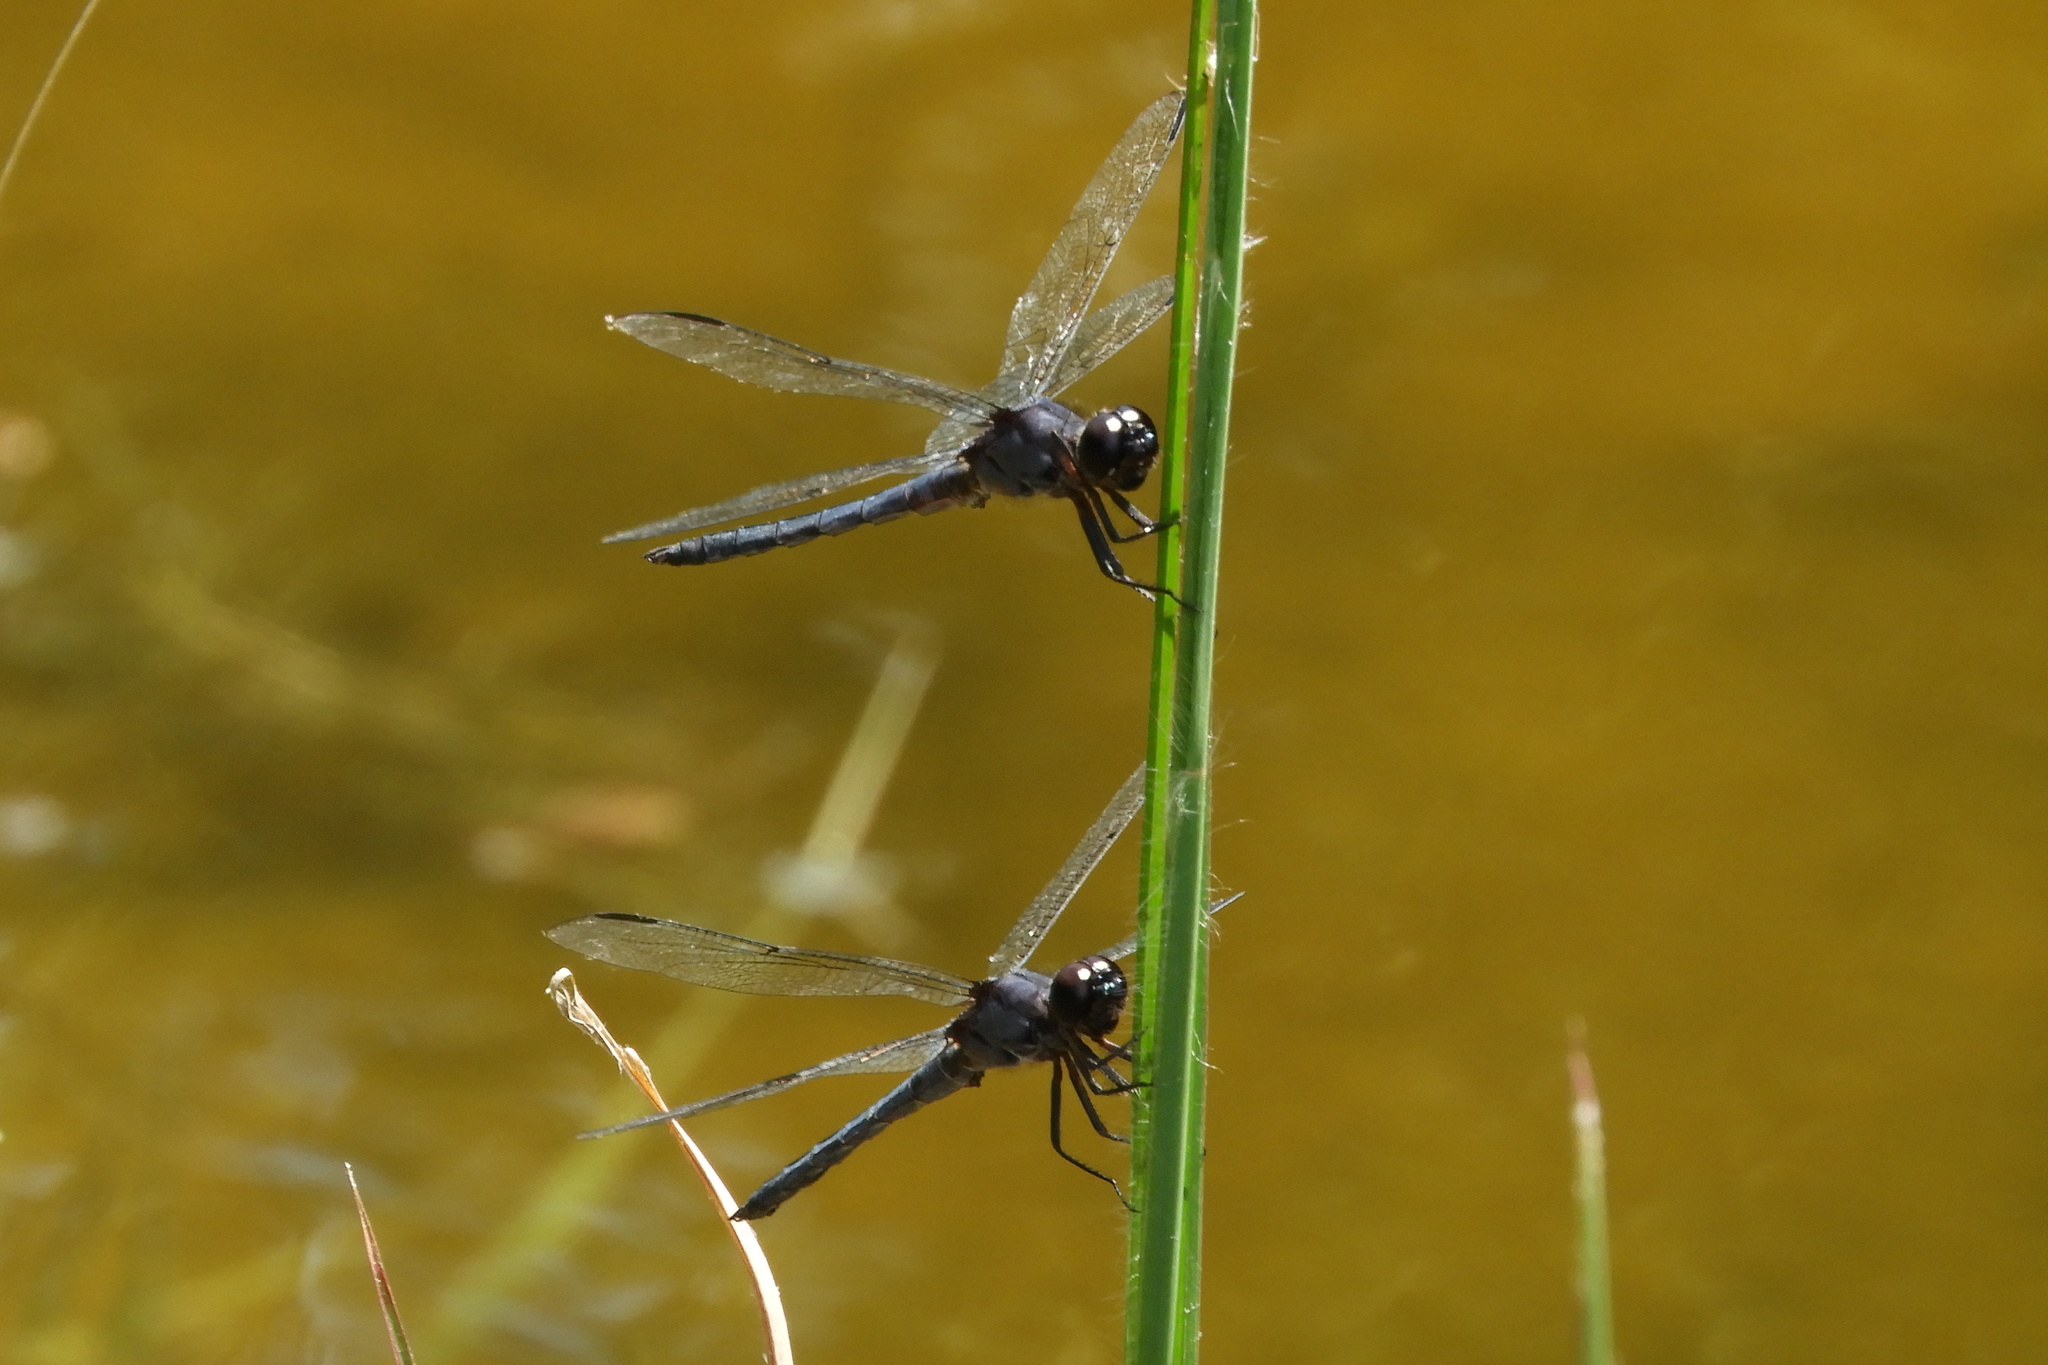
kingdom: Animalia
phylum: Arthropoda
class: Insecta
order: Odonata
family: Libellulidae
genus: Libellula
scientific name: Libellula incesta
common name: Slaty skimmer
